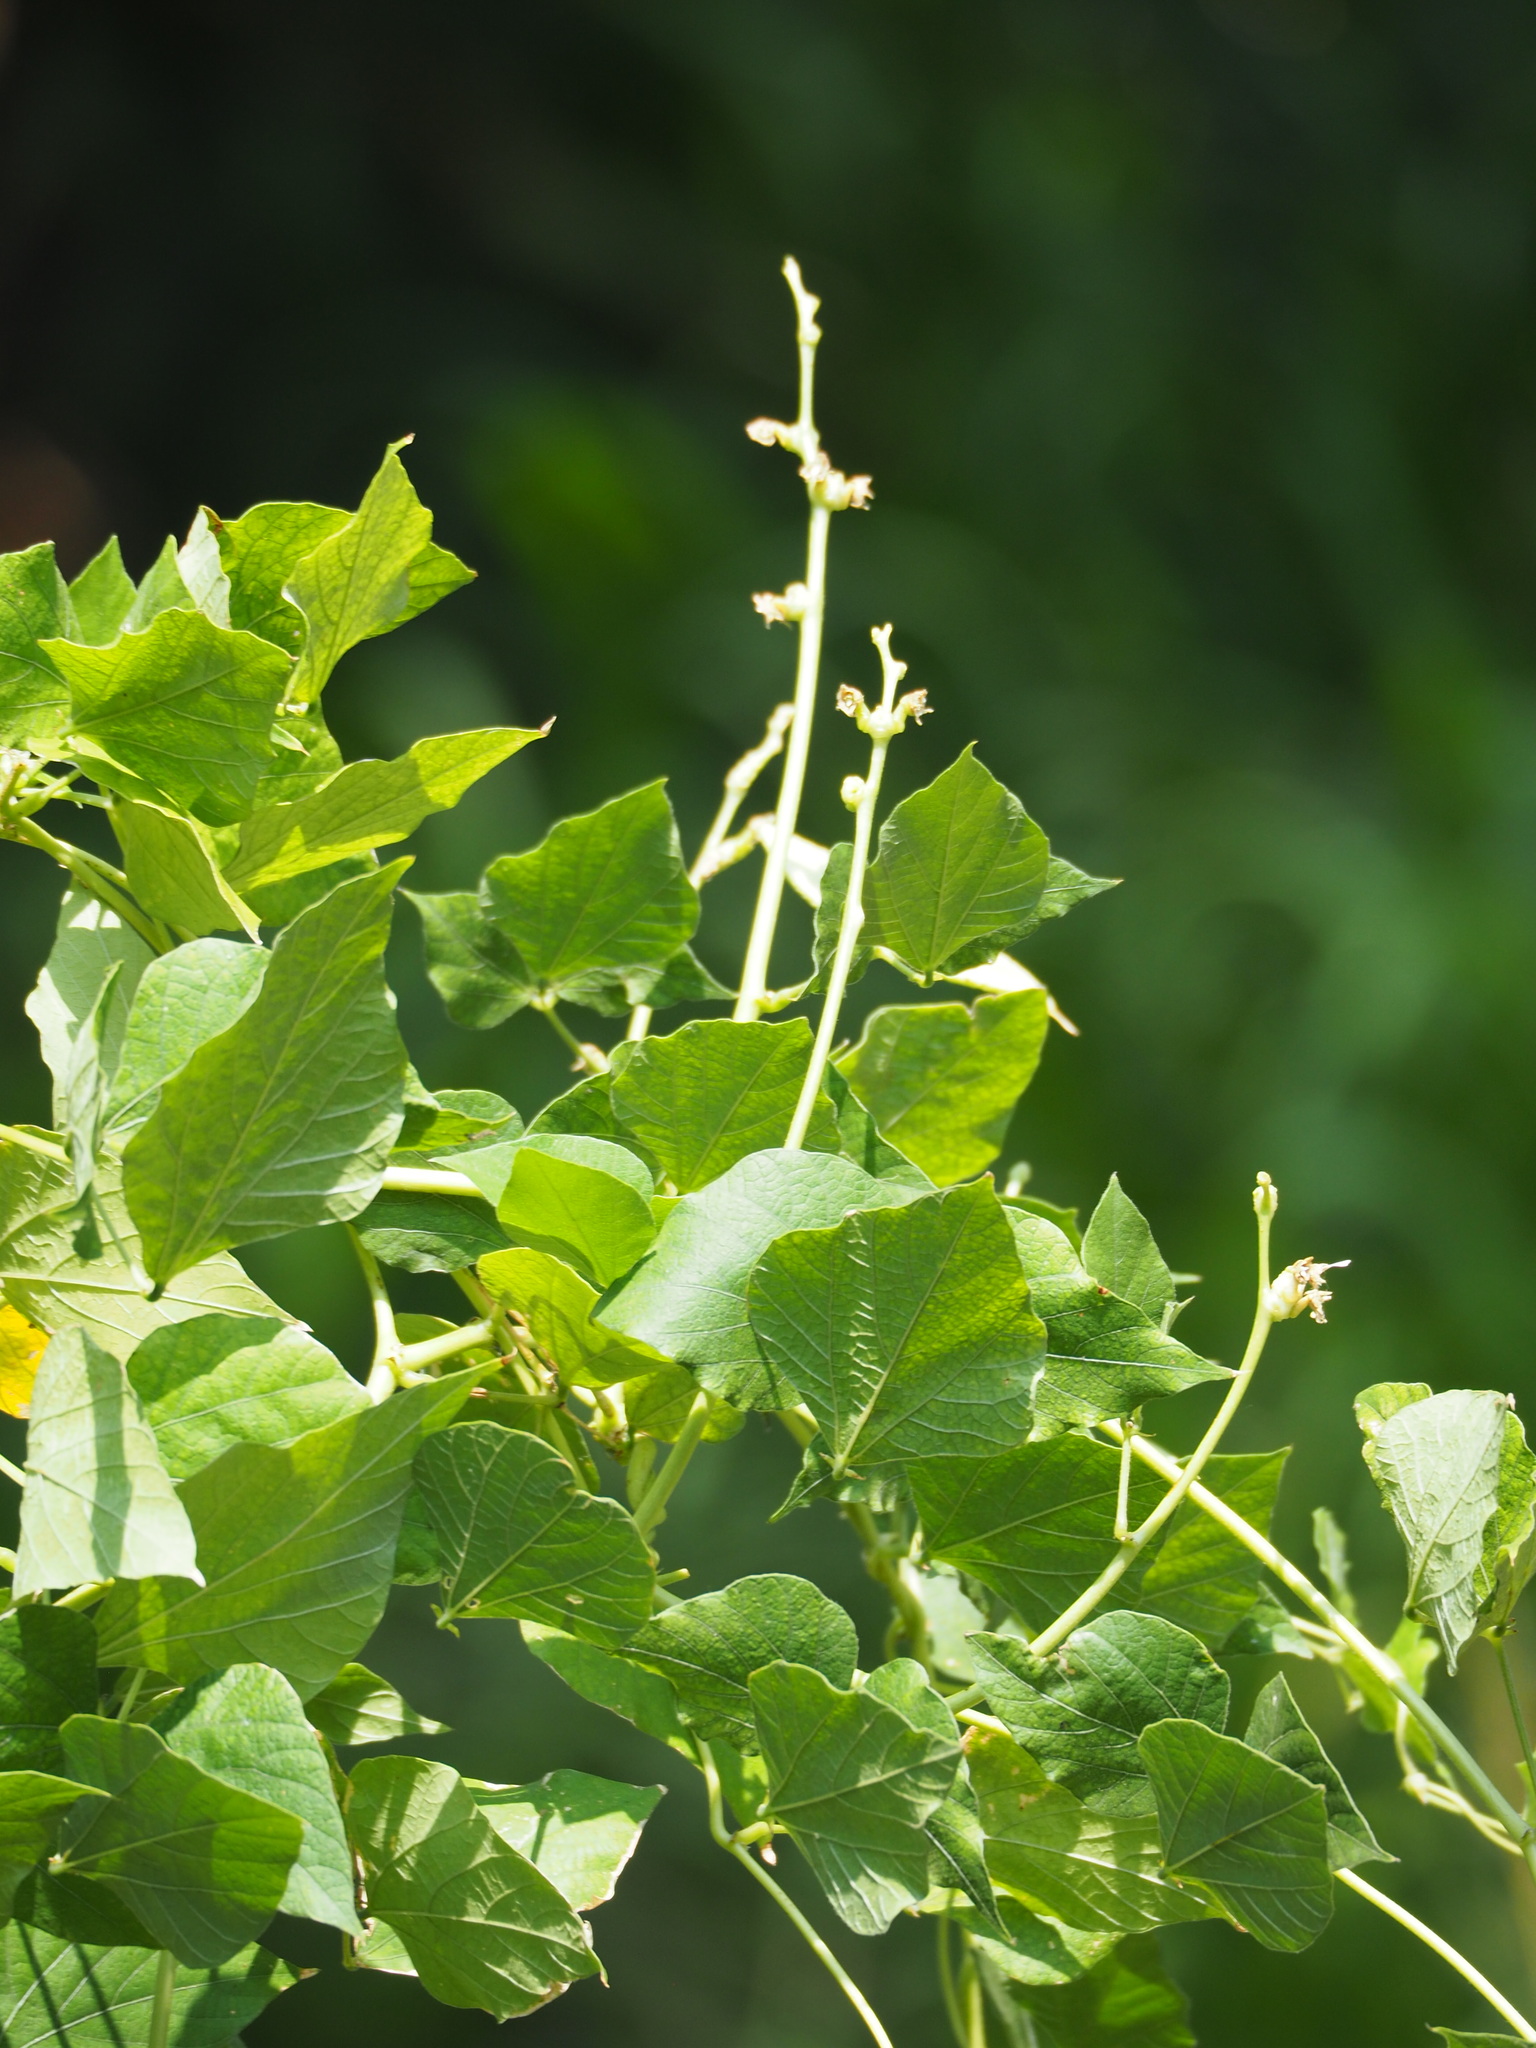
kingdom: Plantae
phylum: Tracheophyta
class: Magnoliopsida
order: Fabales
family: Fabaceae
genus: Lablab
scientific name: Lablab purpureus
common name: Lablab-bean
